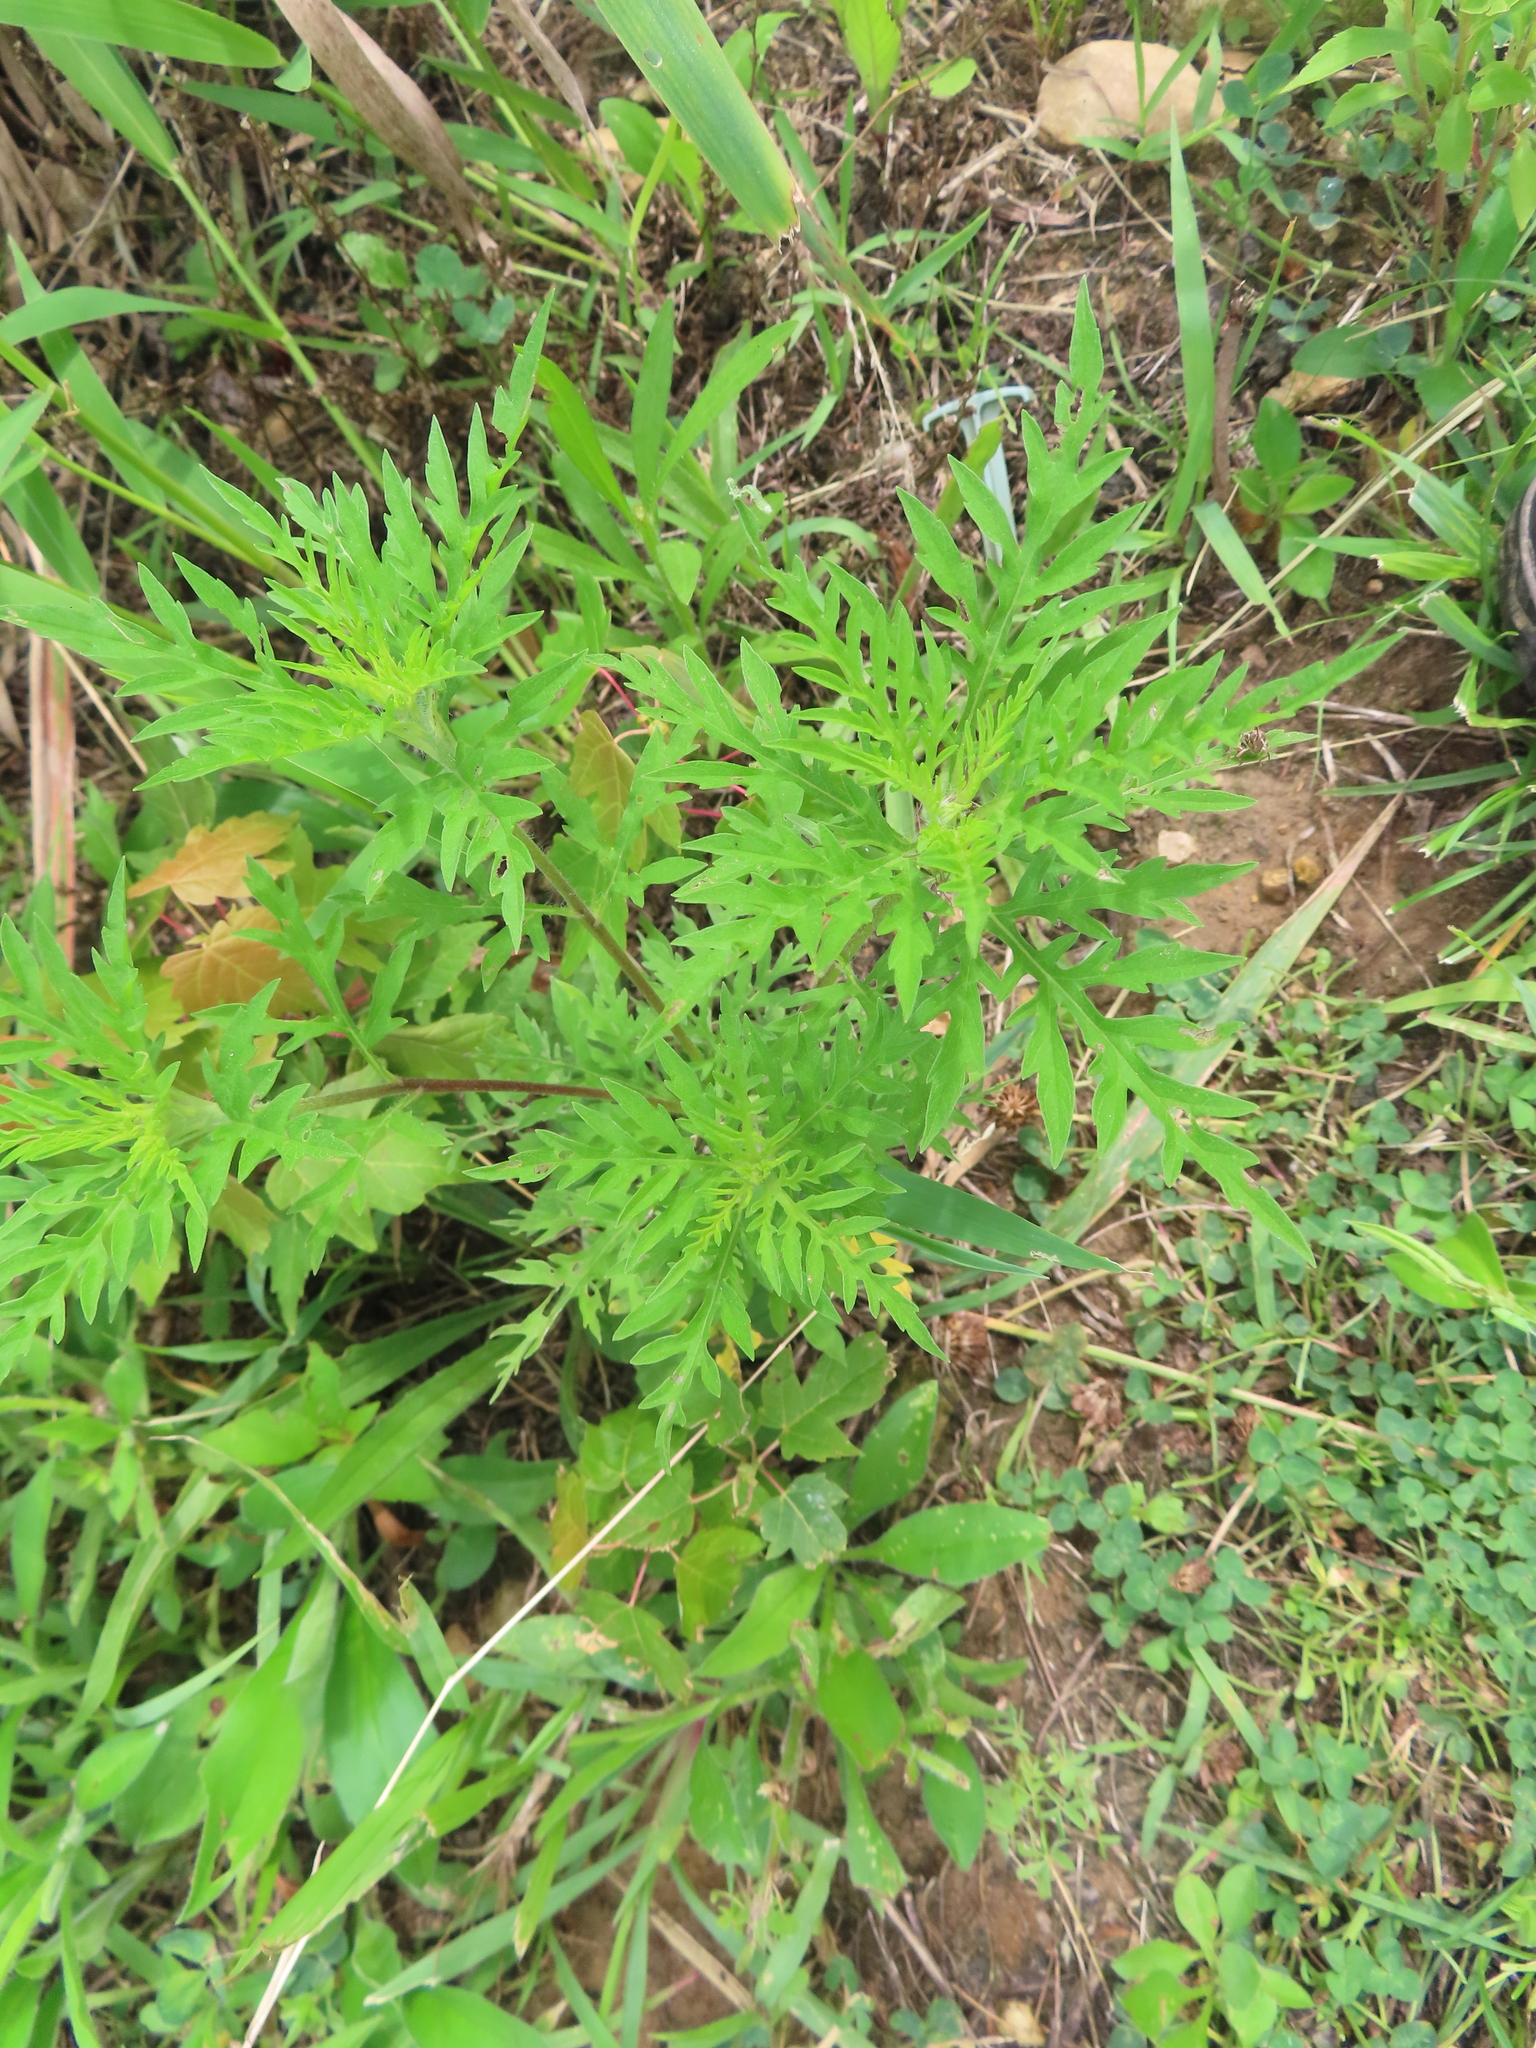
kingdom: Plantae
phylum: Tracheophyta
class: Magnoliopsida
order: Asterales
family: Asteraceae
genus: Ambrosia
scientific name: Ambrosia artemisiifolia
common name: Annual ragweed
